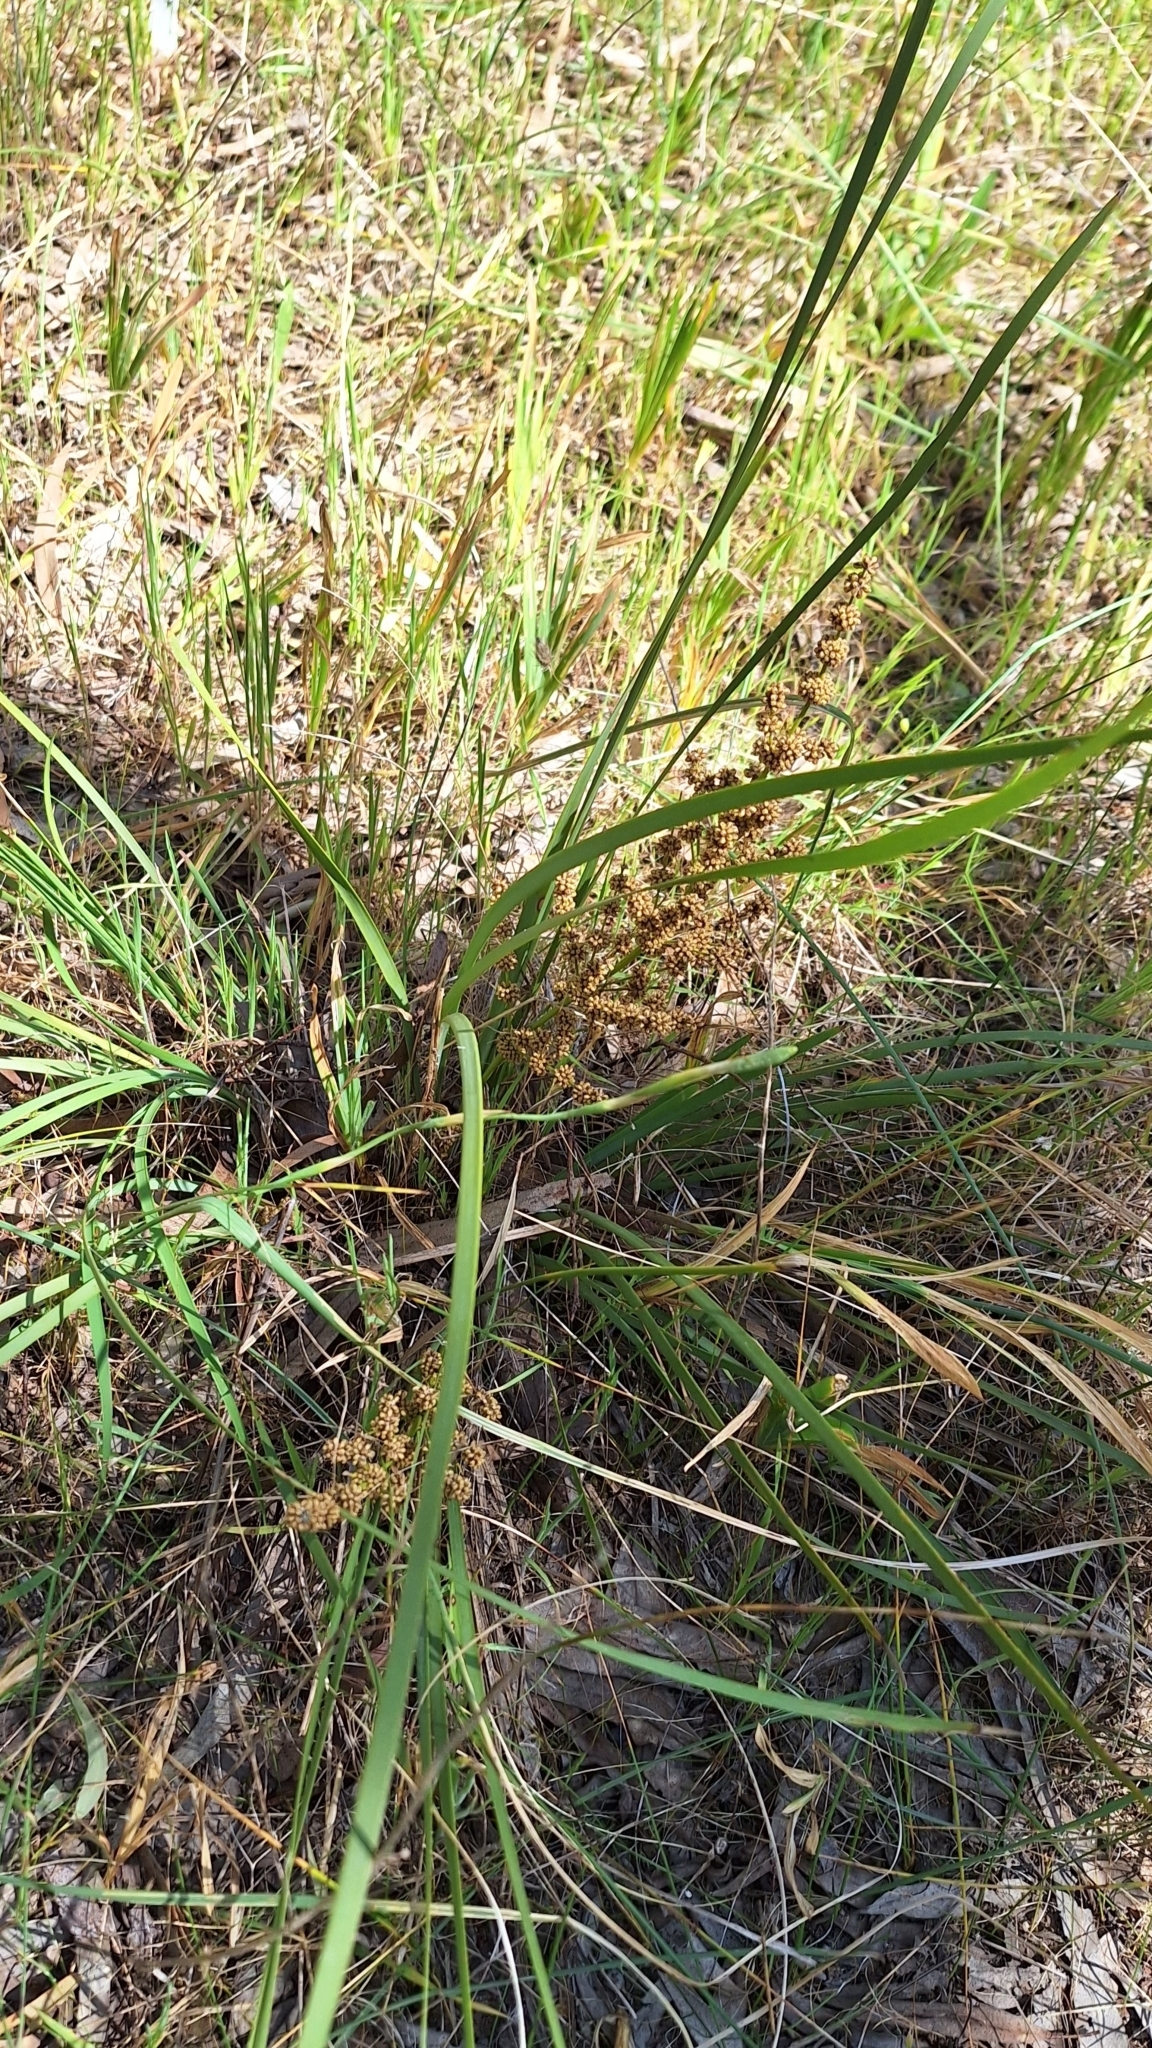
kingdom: Plantae
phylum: Tracheophyta
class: Liliopsida
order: Asparagales
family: Asparagaceae
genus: Lomandra
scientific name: Lomandra multiflora
